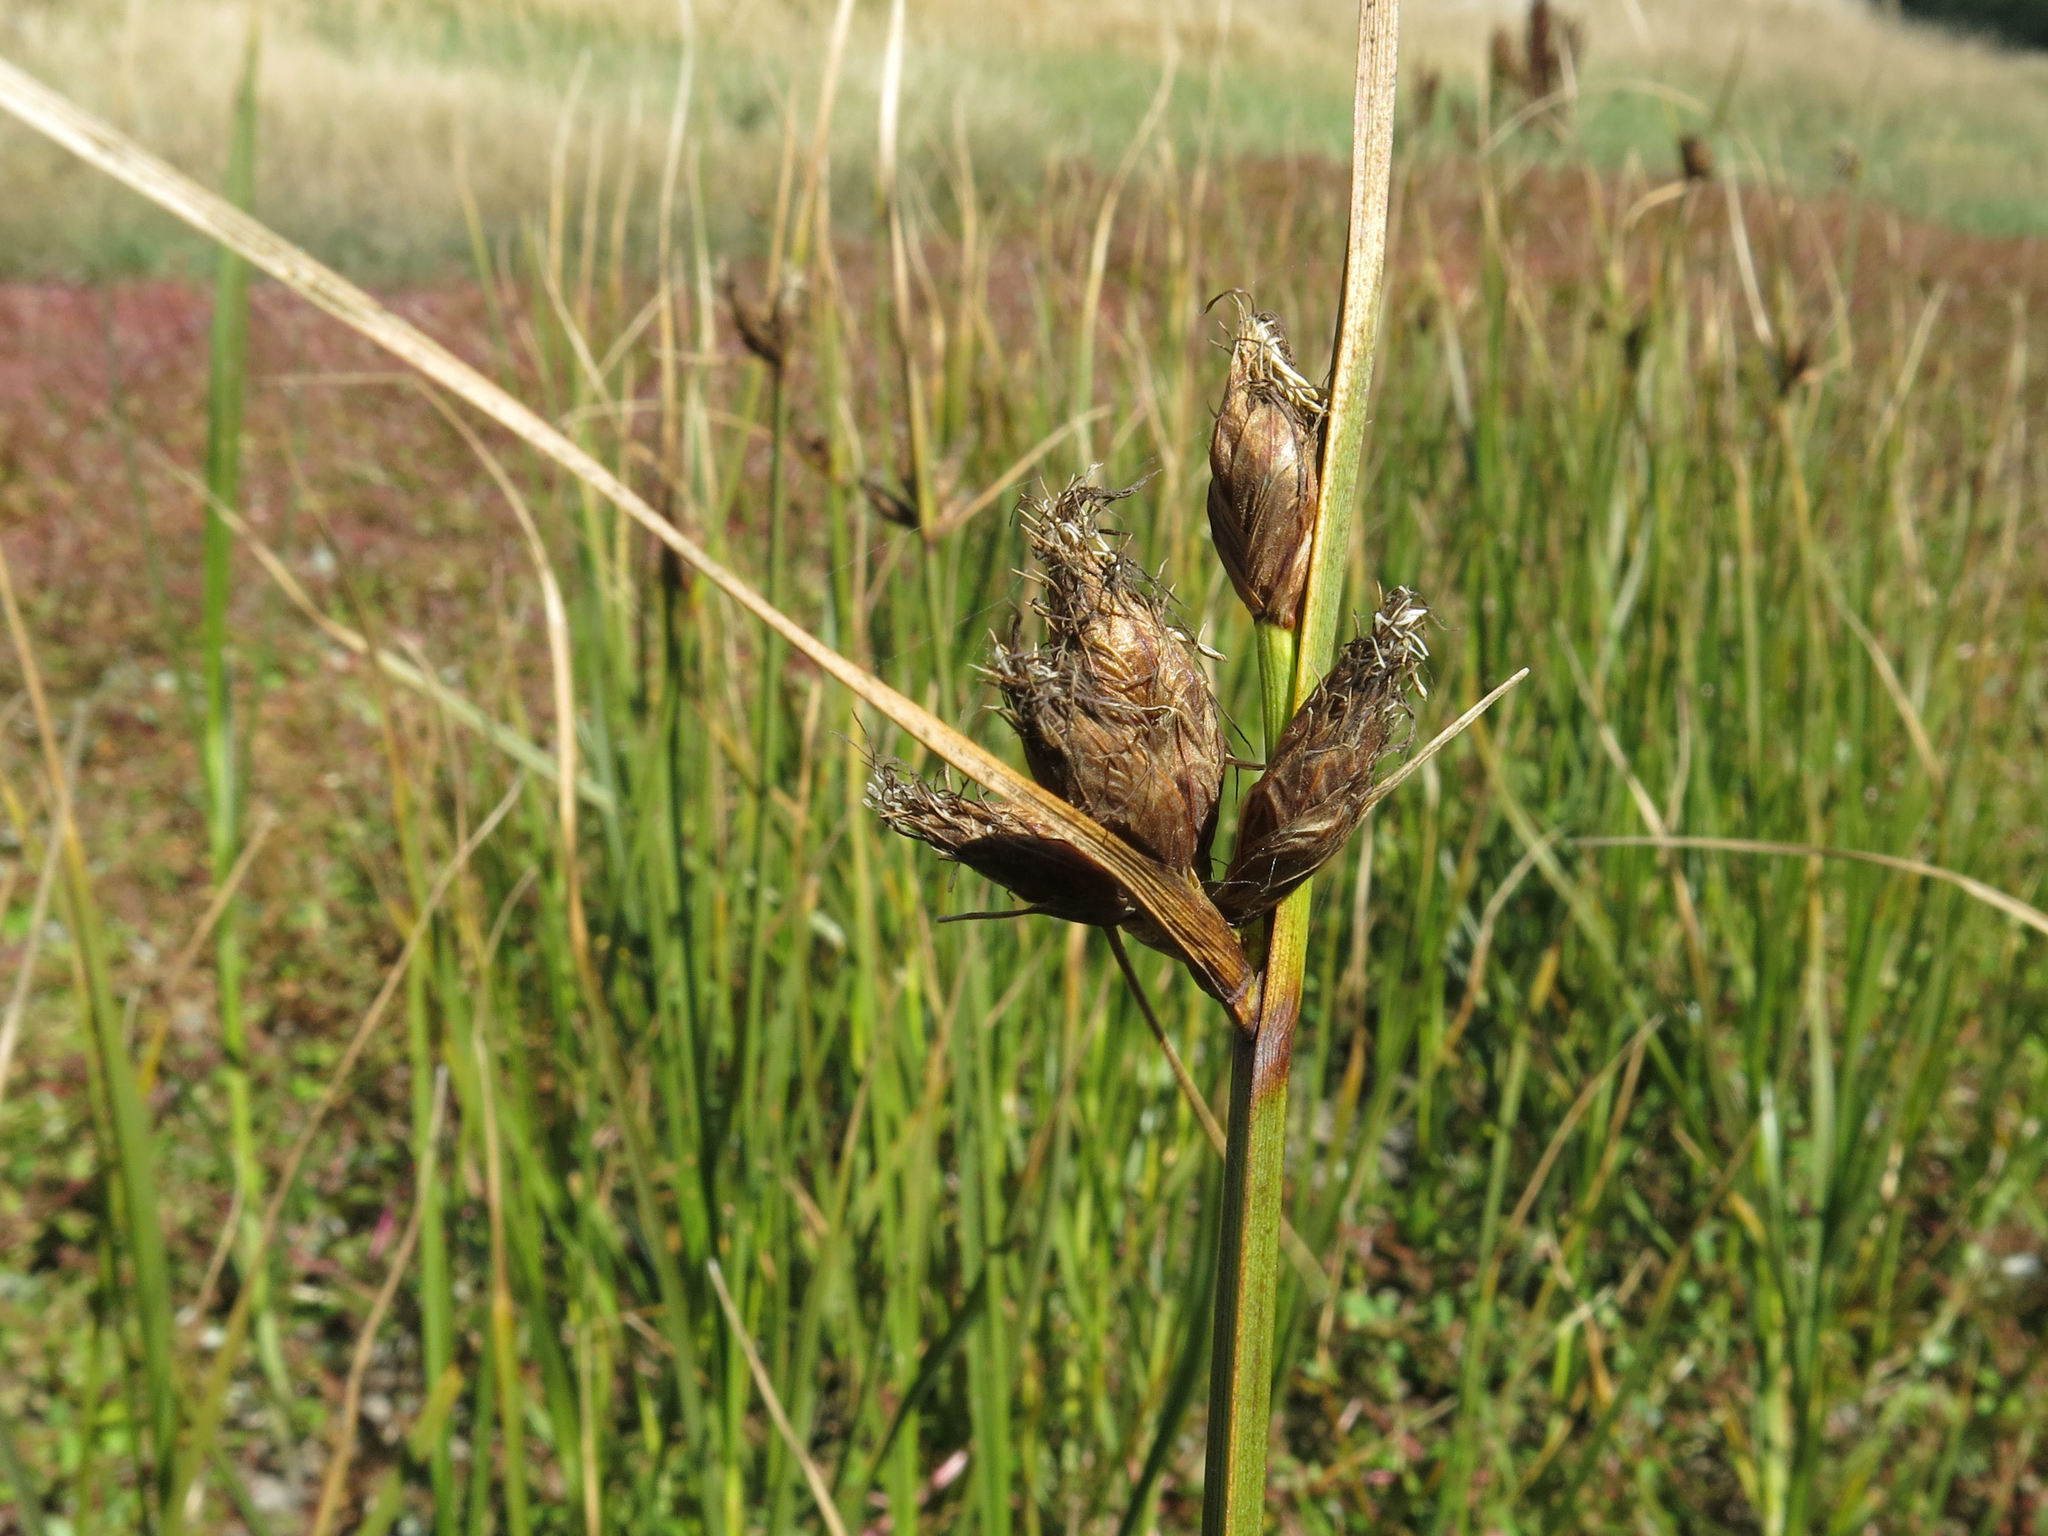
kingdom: Plantae
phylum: Tracheophyta
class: Liliopsida
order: Poales
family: Cyperaceae
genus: Bolboschoenus
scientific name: Bolboschoenus caldwellii
